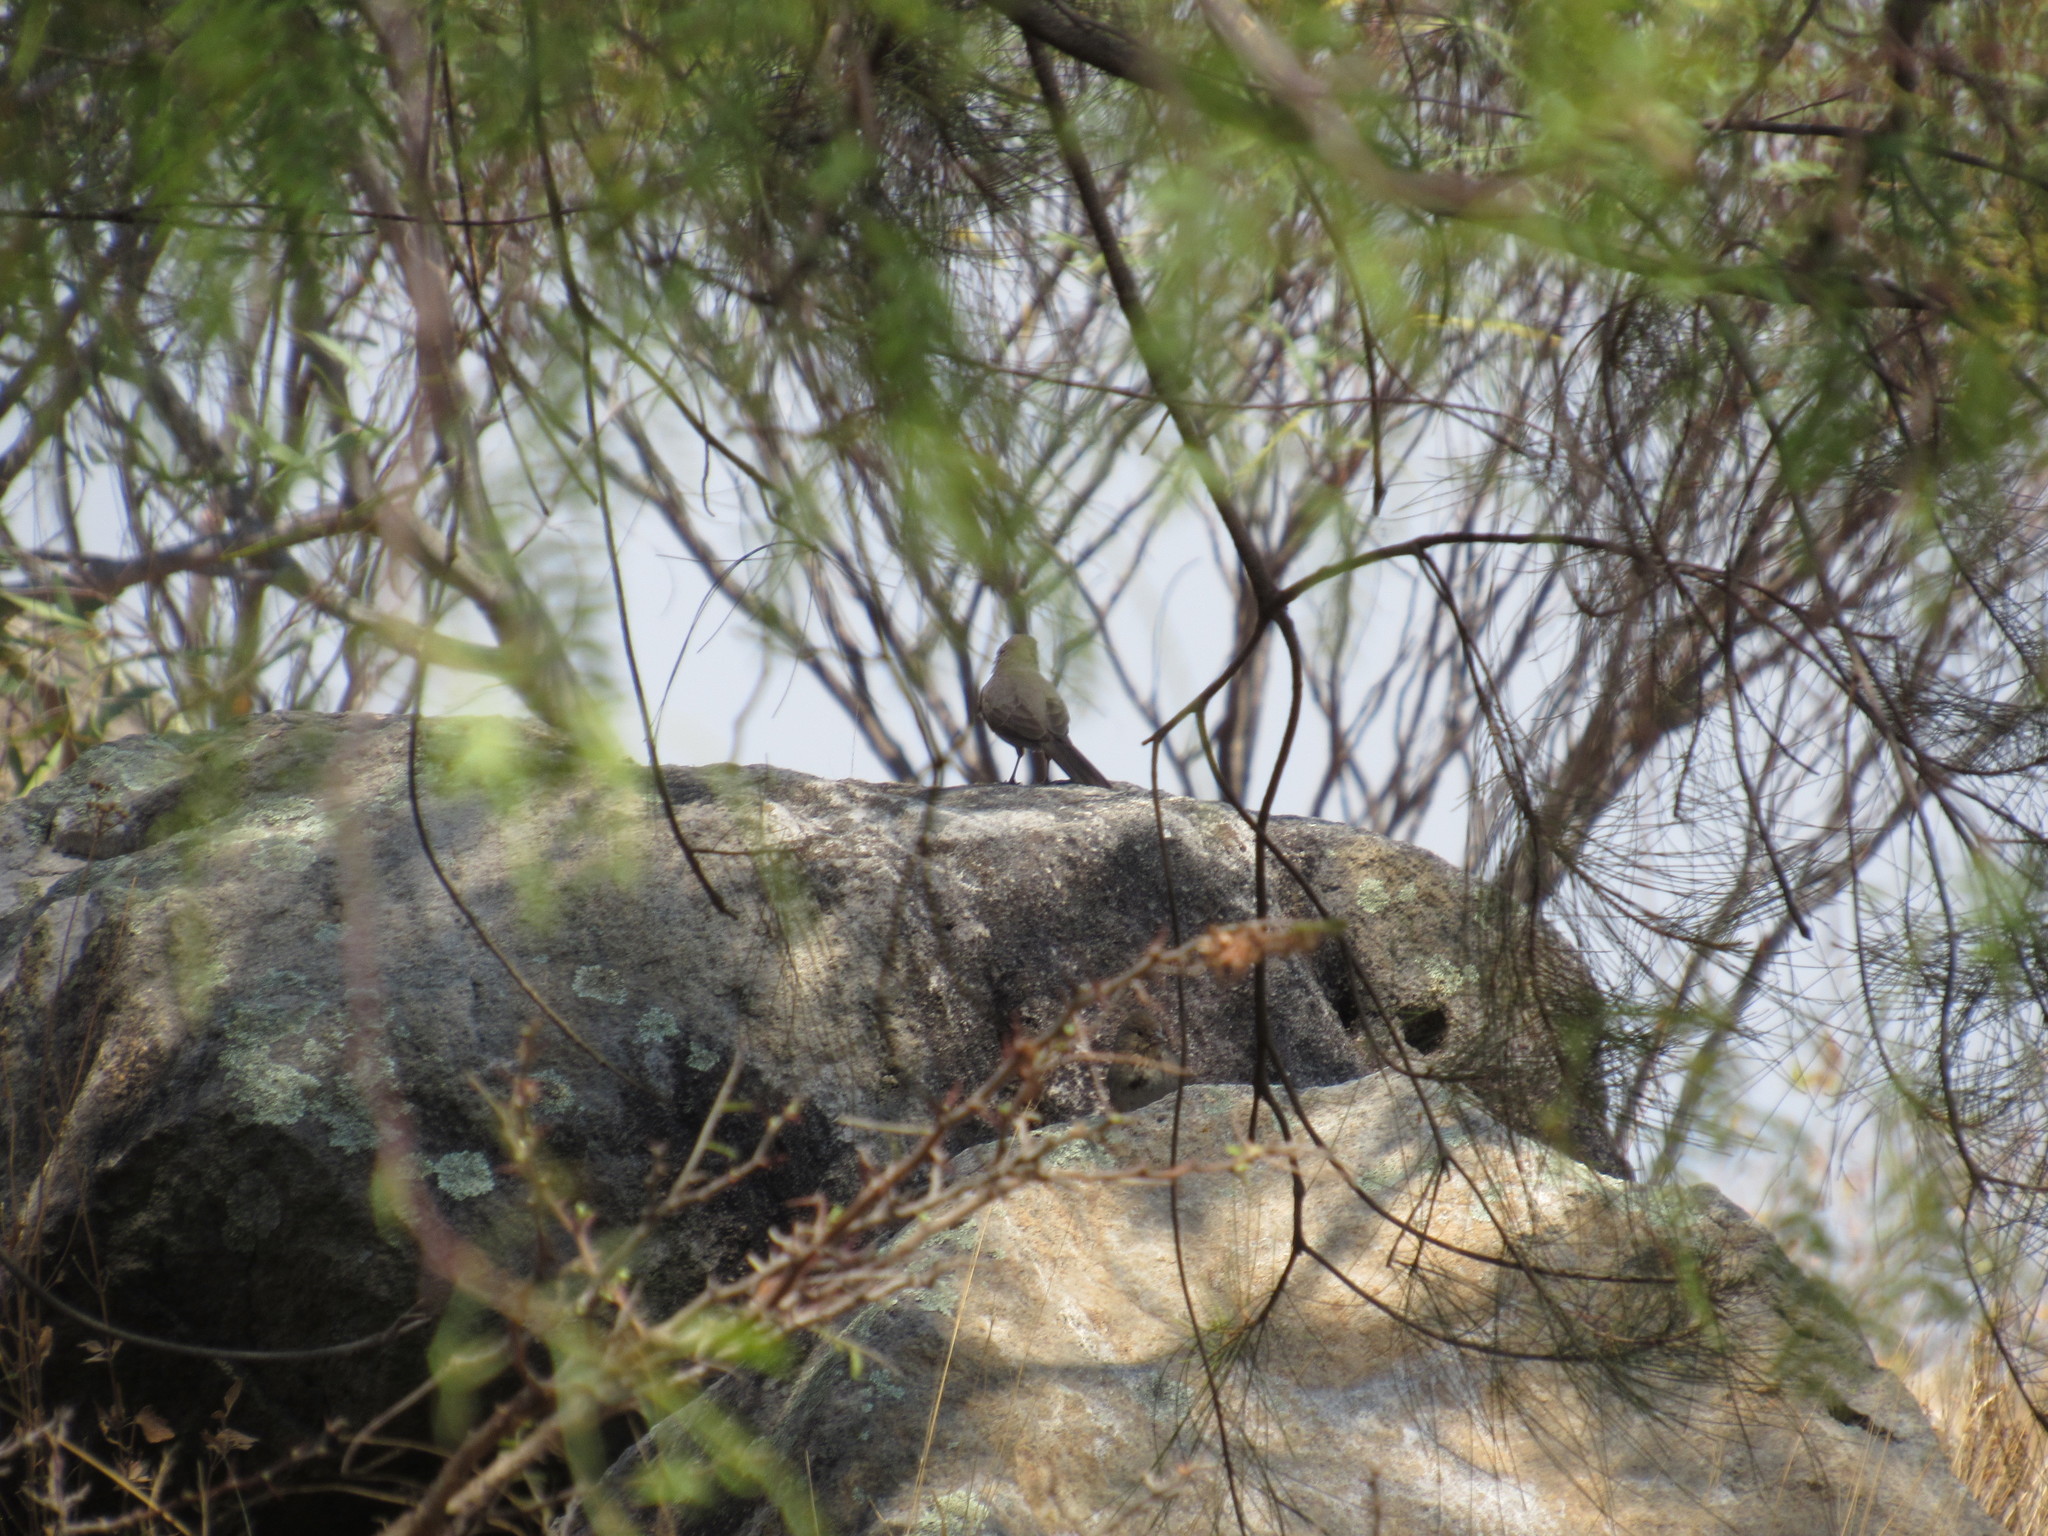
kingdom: Animalia
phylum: Chordata
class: Aves
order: Passeriformes
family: Passerellidae
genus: Melozone
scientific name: Melozone fusca
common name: Canyon towhee
